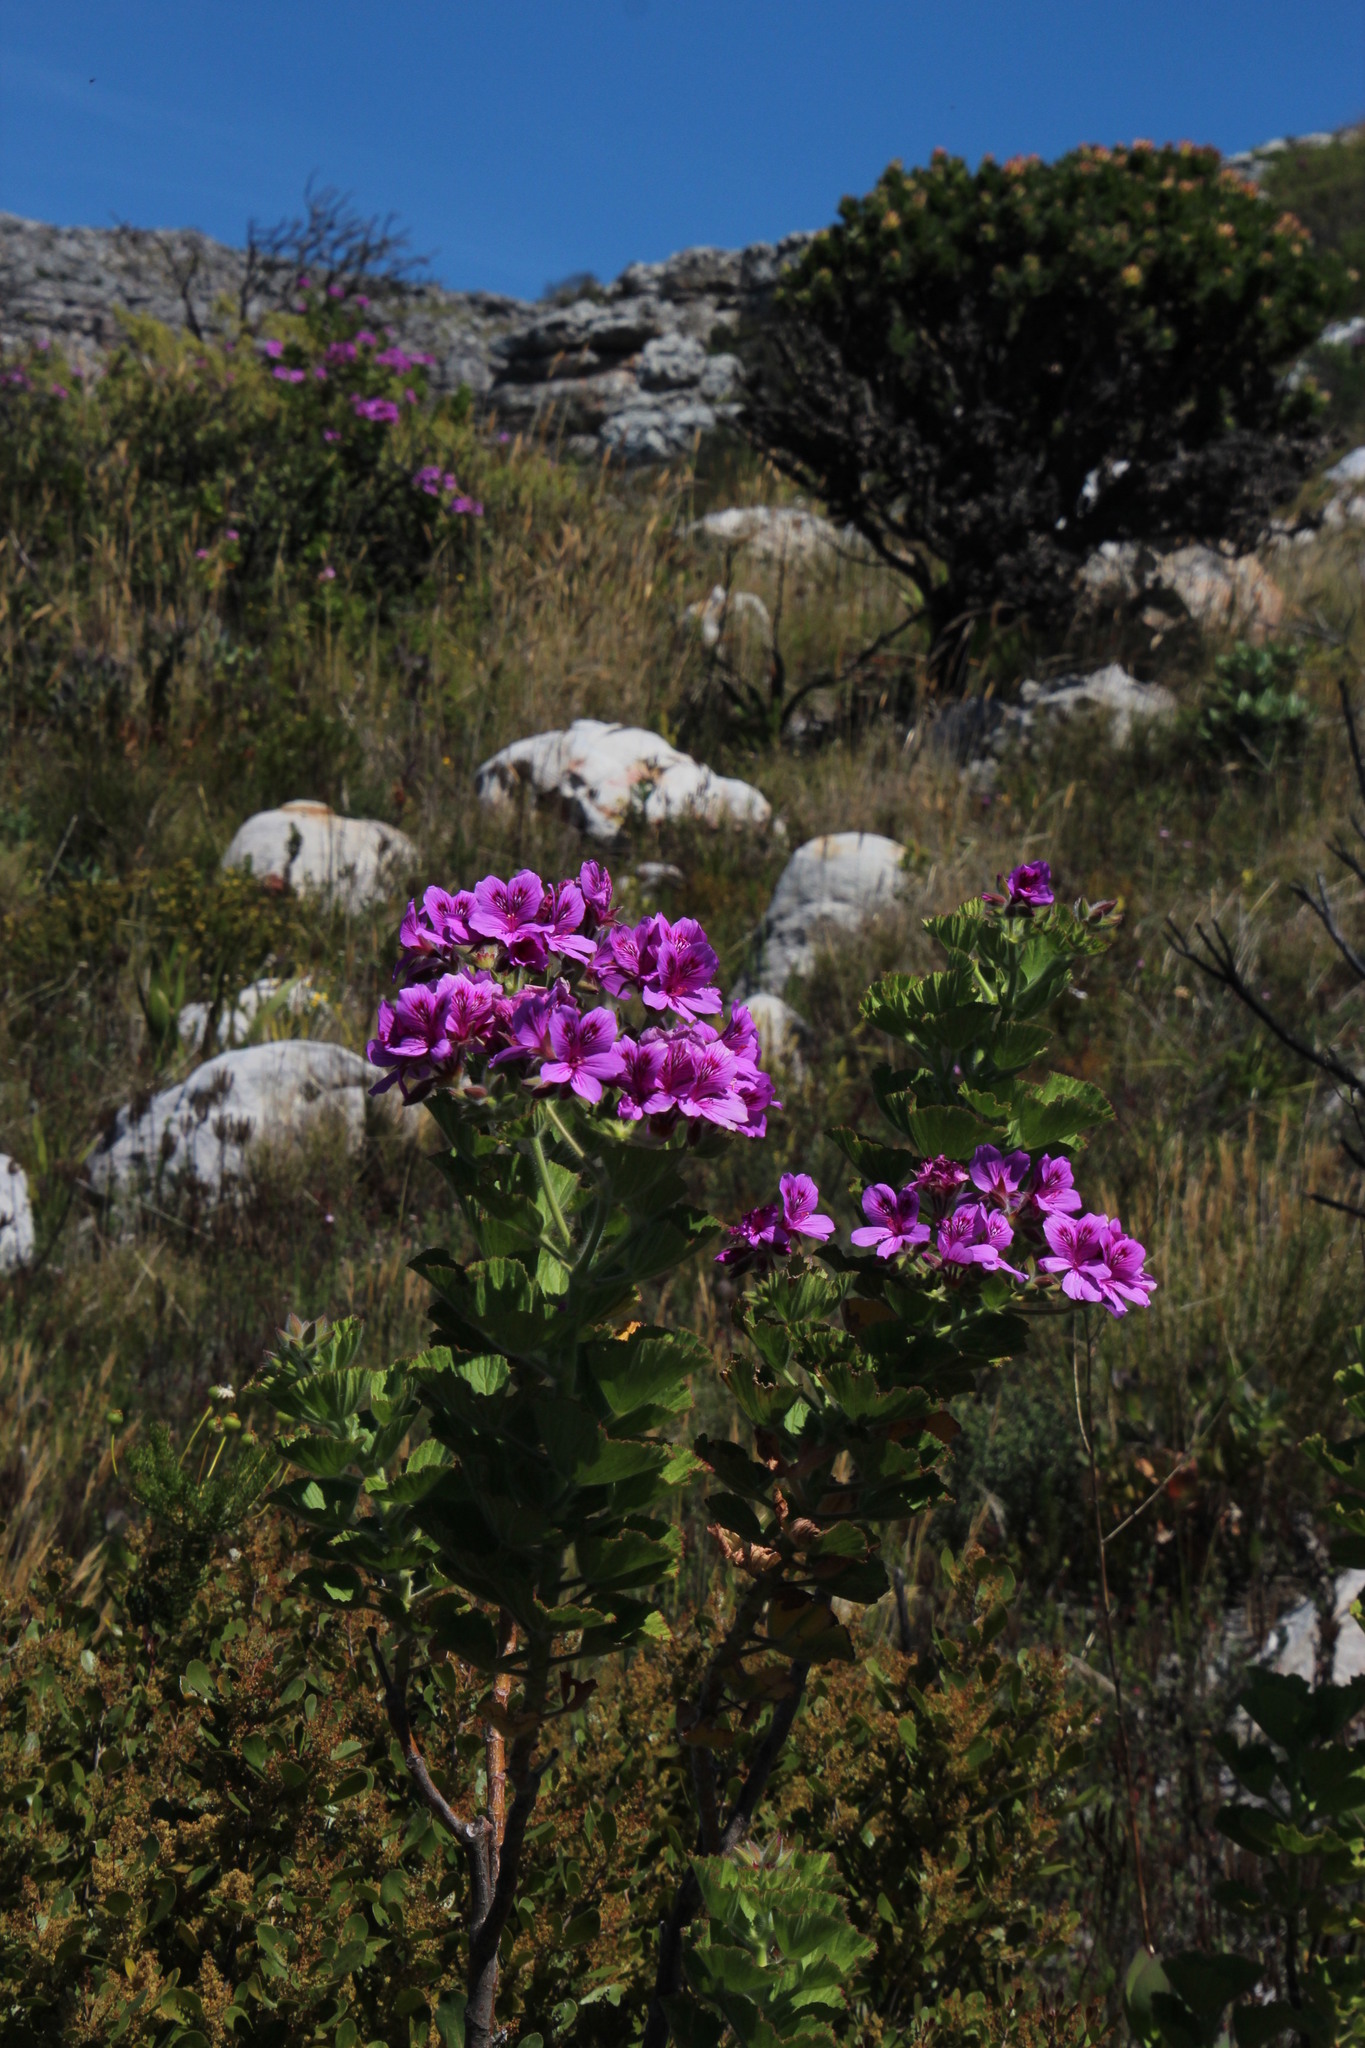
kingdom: Plantae
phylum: Tracheophyta
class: Magnoliopsida
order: Geraniales
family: Geraniaceae
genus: Pelargonium
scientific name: Pelargonium cucullatum
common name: Tree pelargonium
